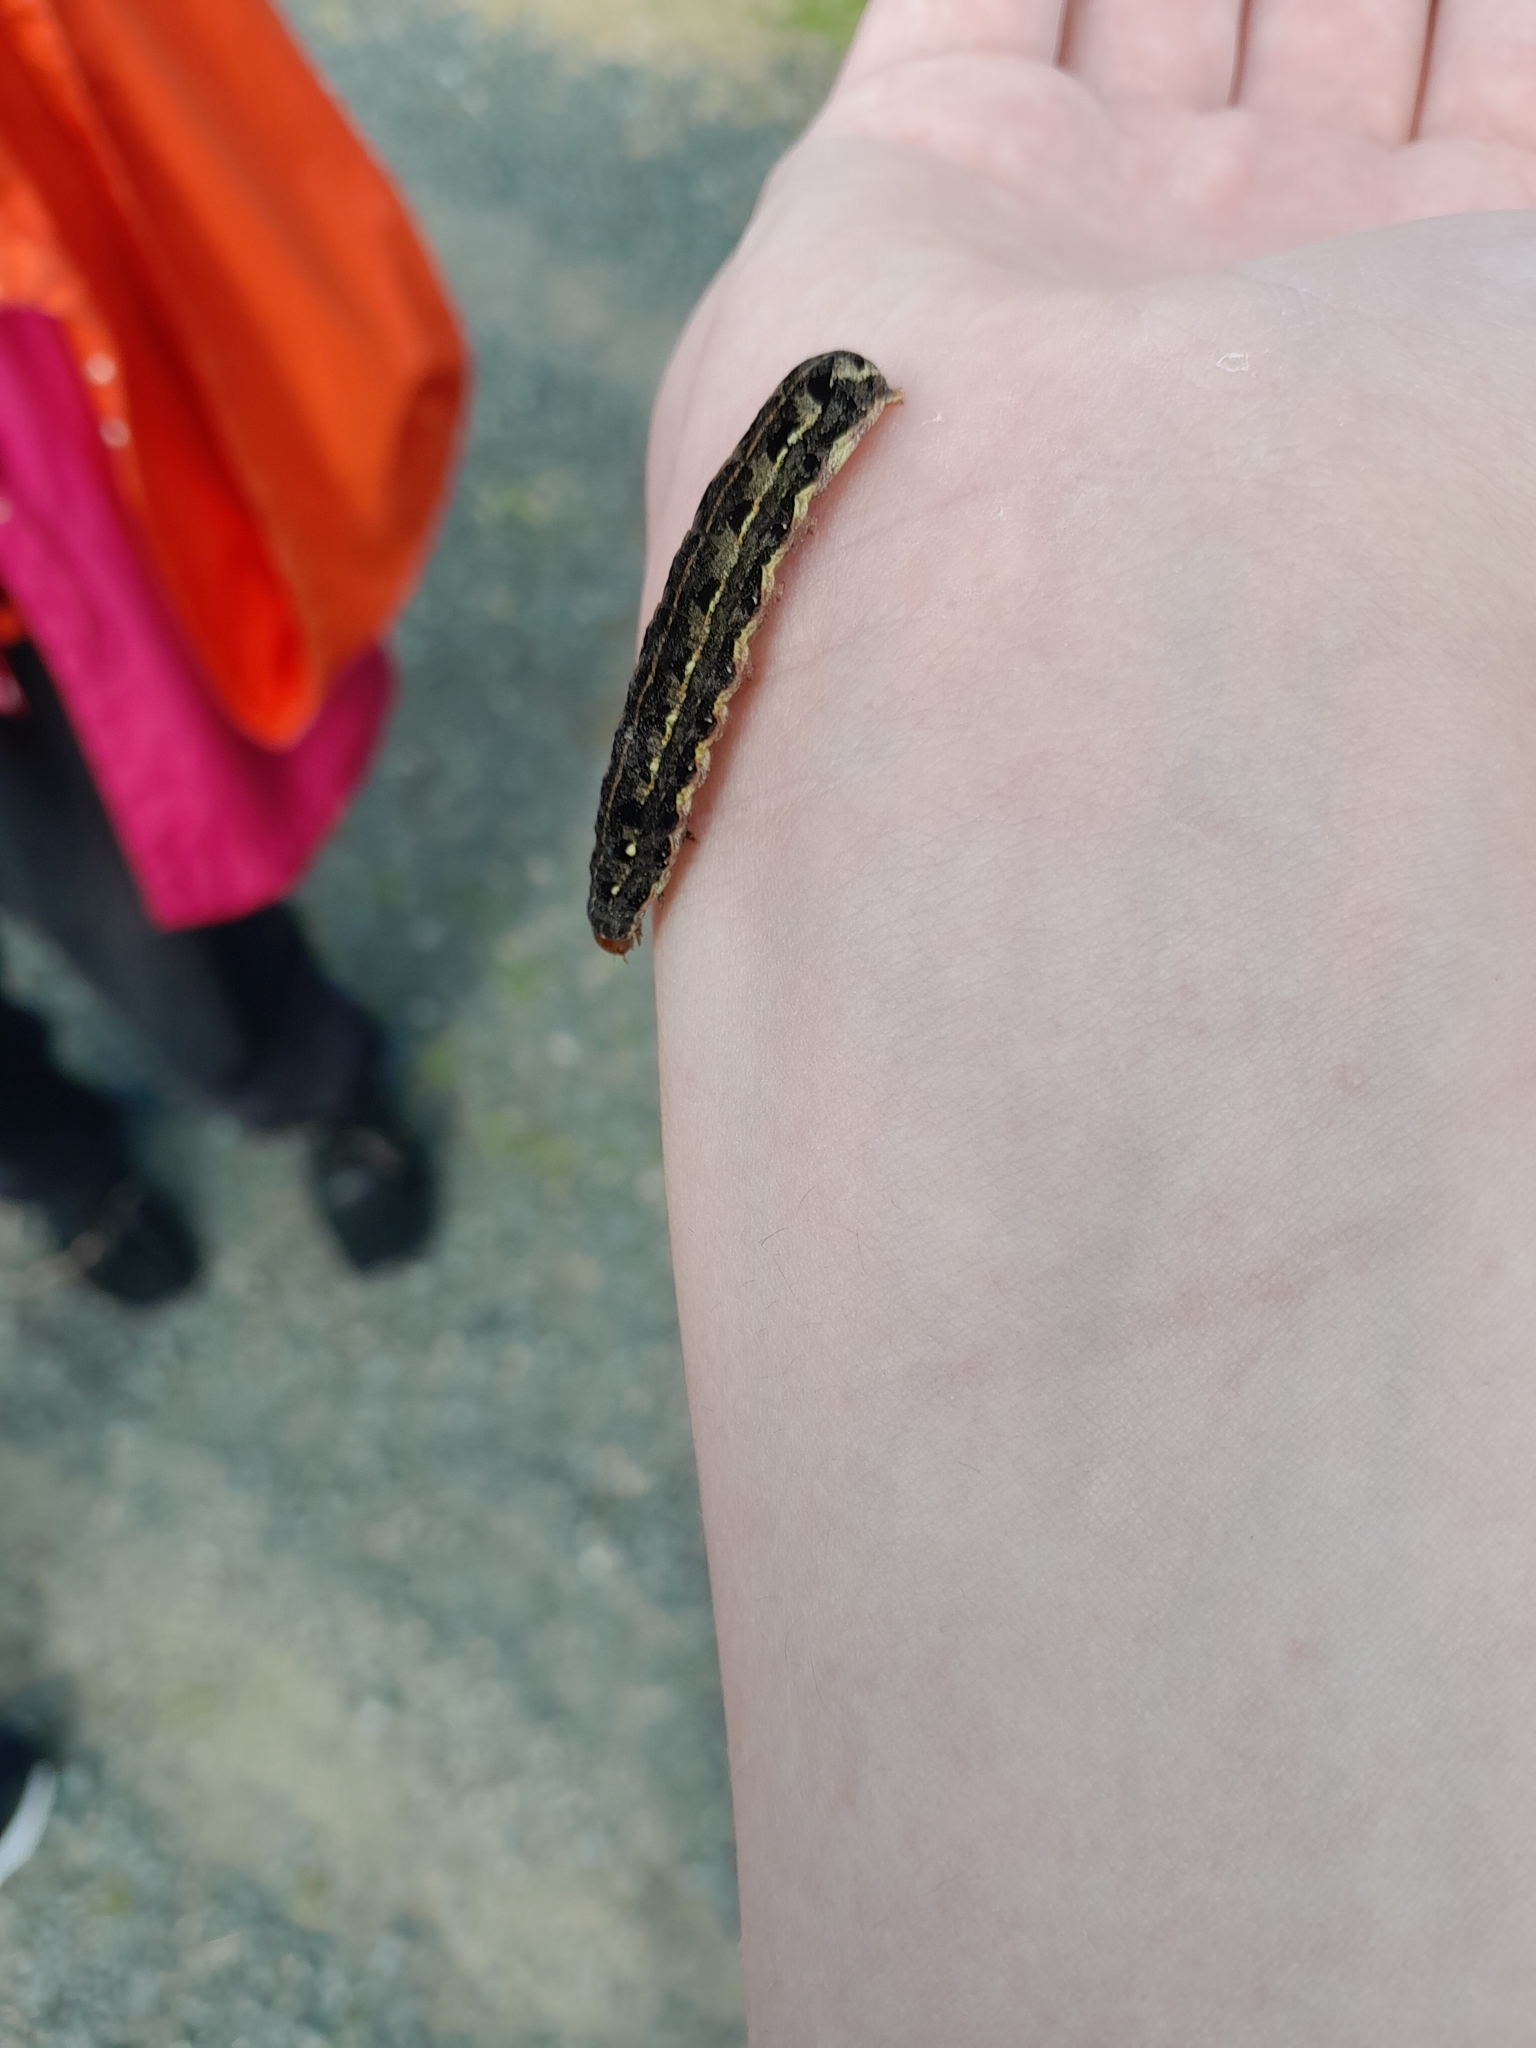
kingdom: Animalia
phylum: Arthropoda
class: Insecta
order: Lepidoptera
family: Noctuidae
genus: Spodoptera
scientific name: Spodoptera litura
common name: Asian cotton leafworm
